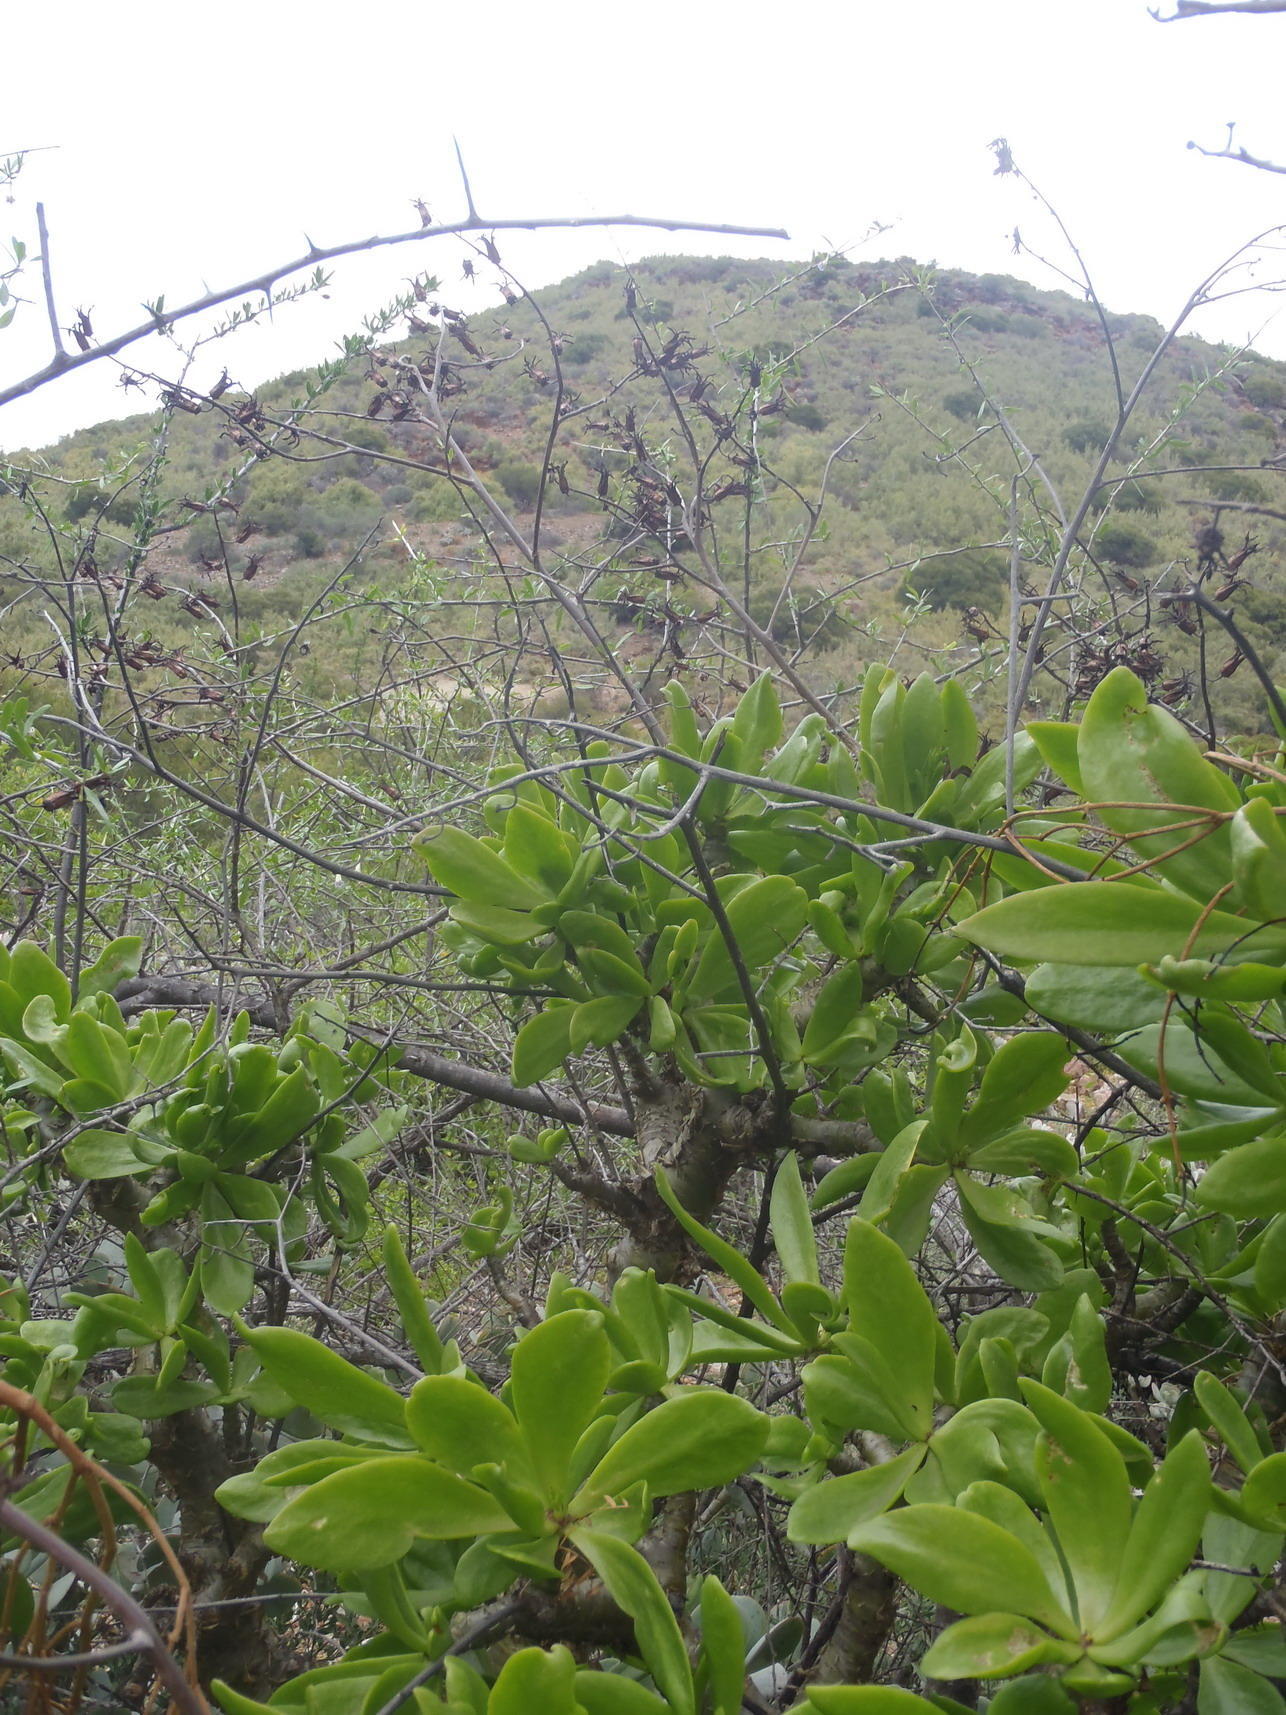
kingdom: Plantae
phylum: Tracheophyta
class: Magnoliopsida
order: Saxifragales
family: Crassulaceae
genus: Tylecodon
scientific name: Tylecodon paniculatus
